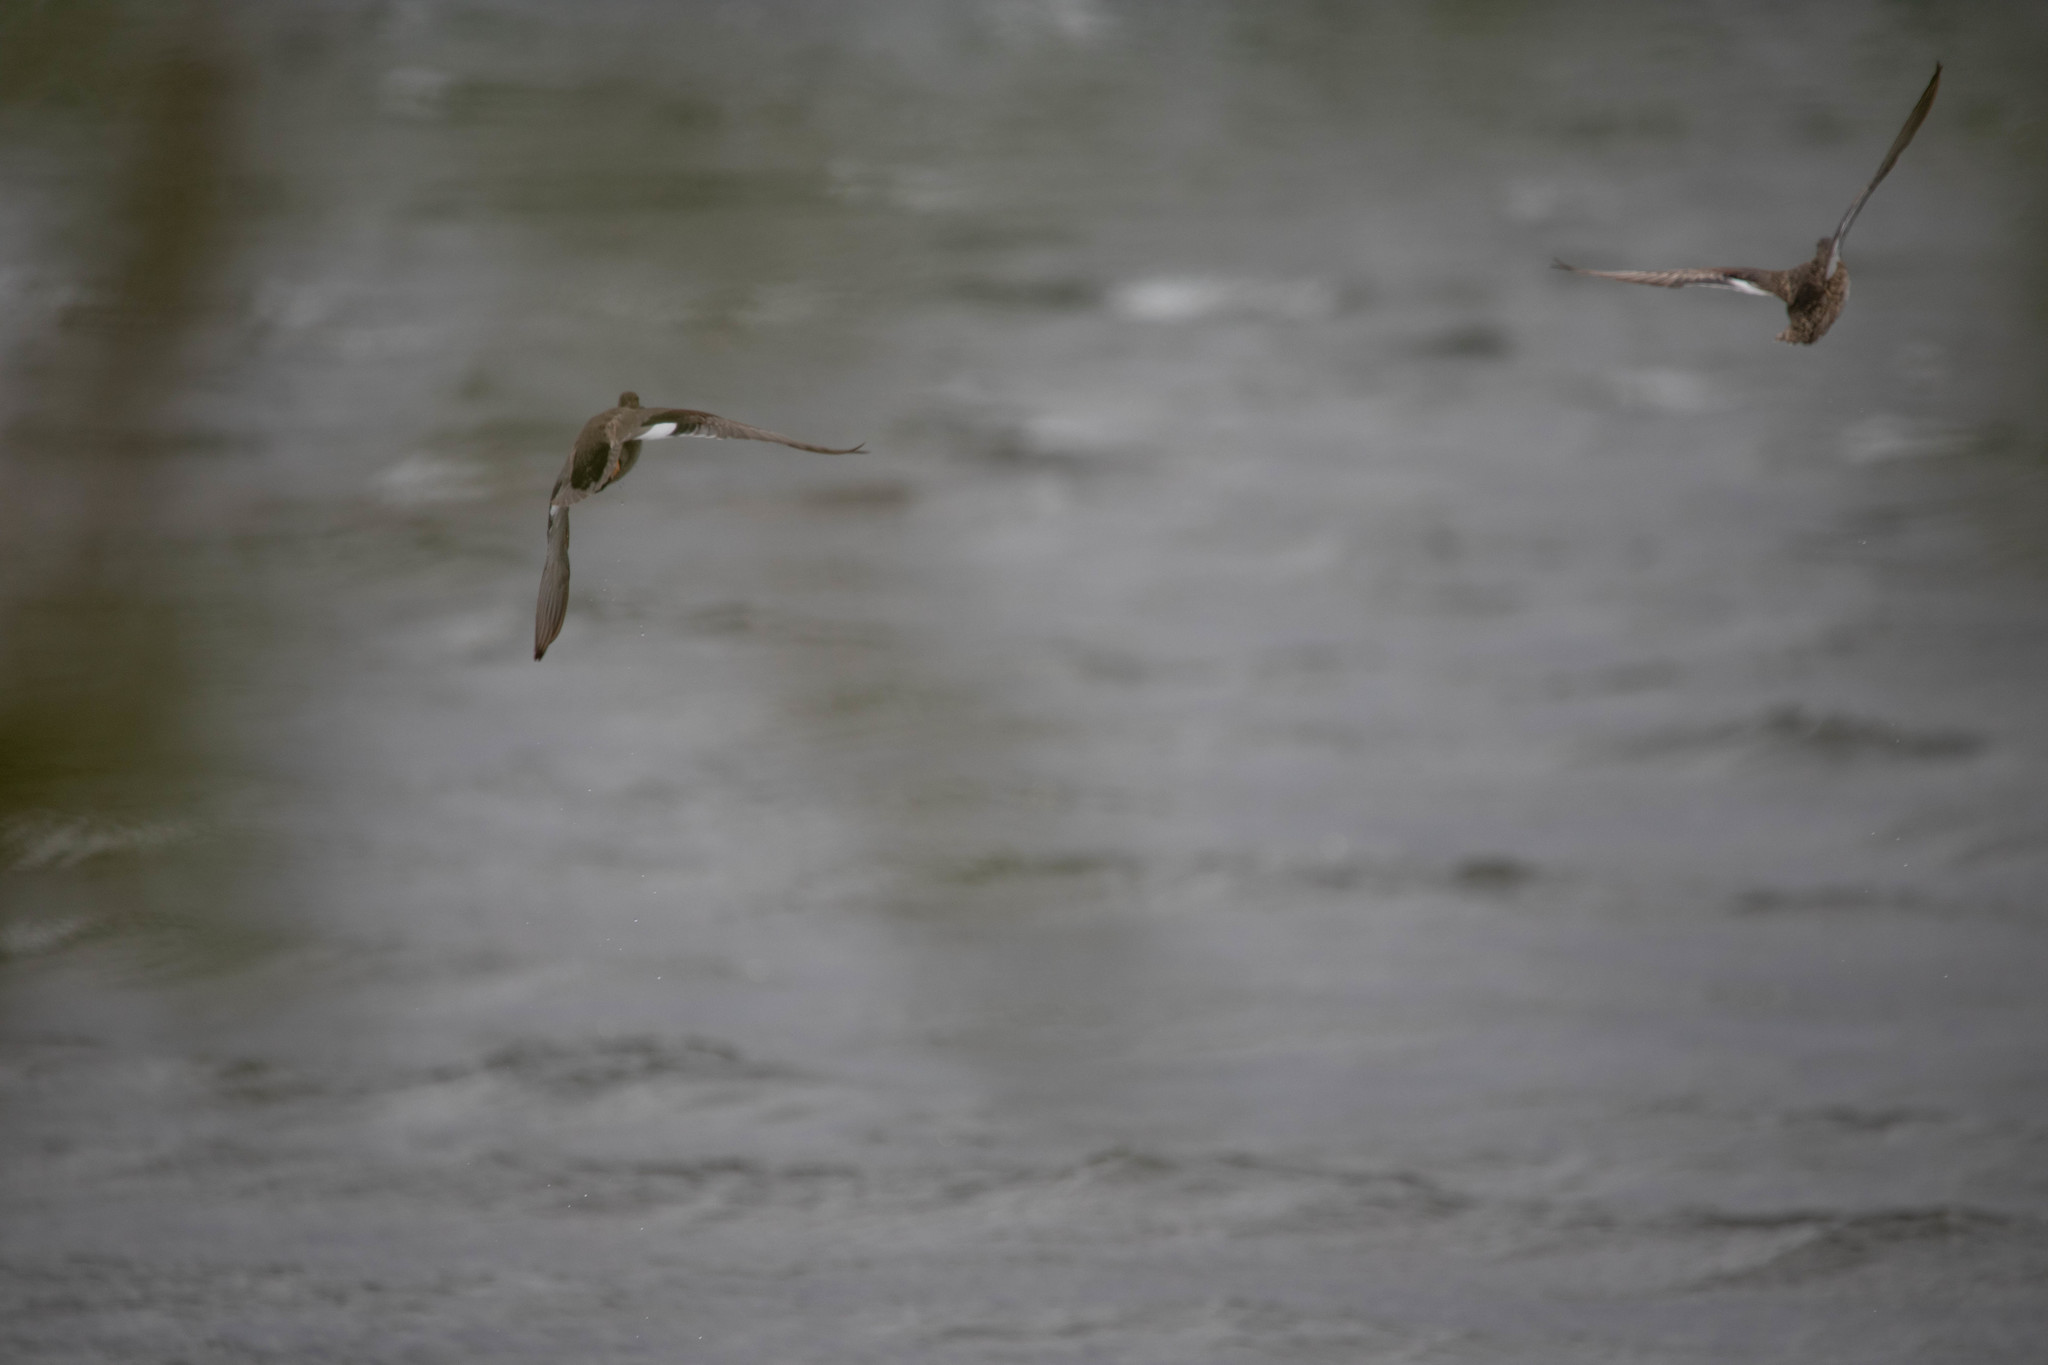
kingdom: Animalia
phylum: Chordata
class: Aves
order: Anseriformes
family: Anatidae
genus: Mareca
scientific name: Mareca strepera
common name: Gadwall
